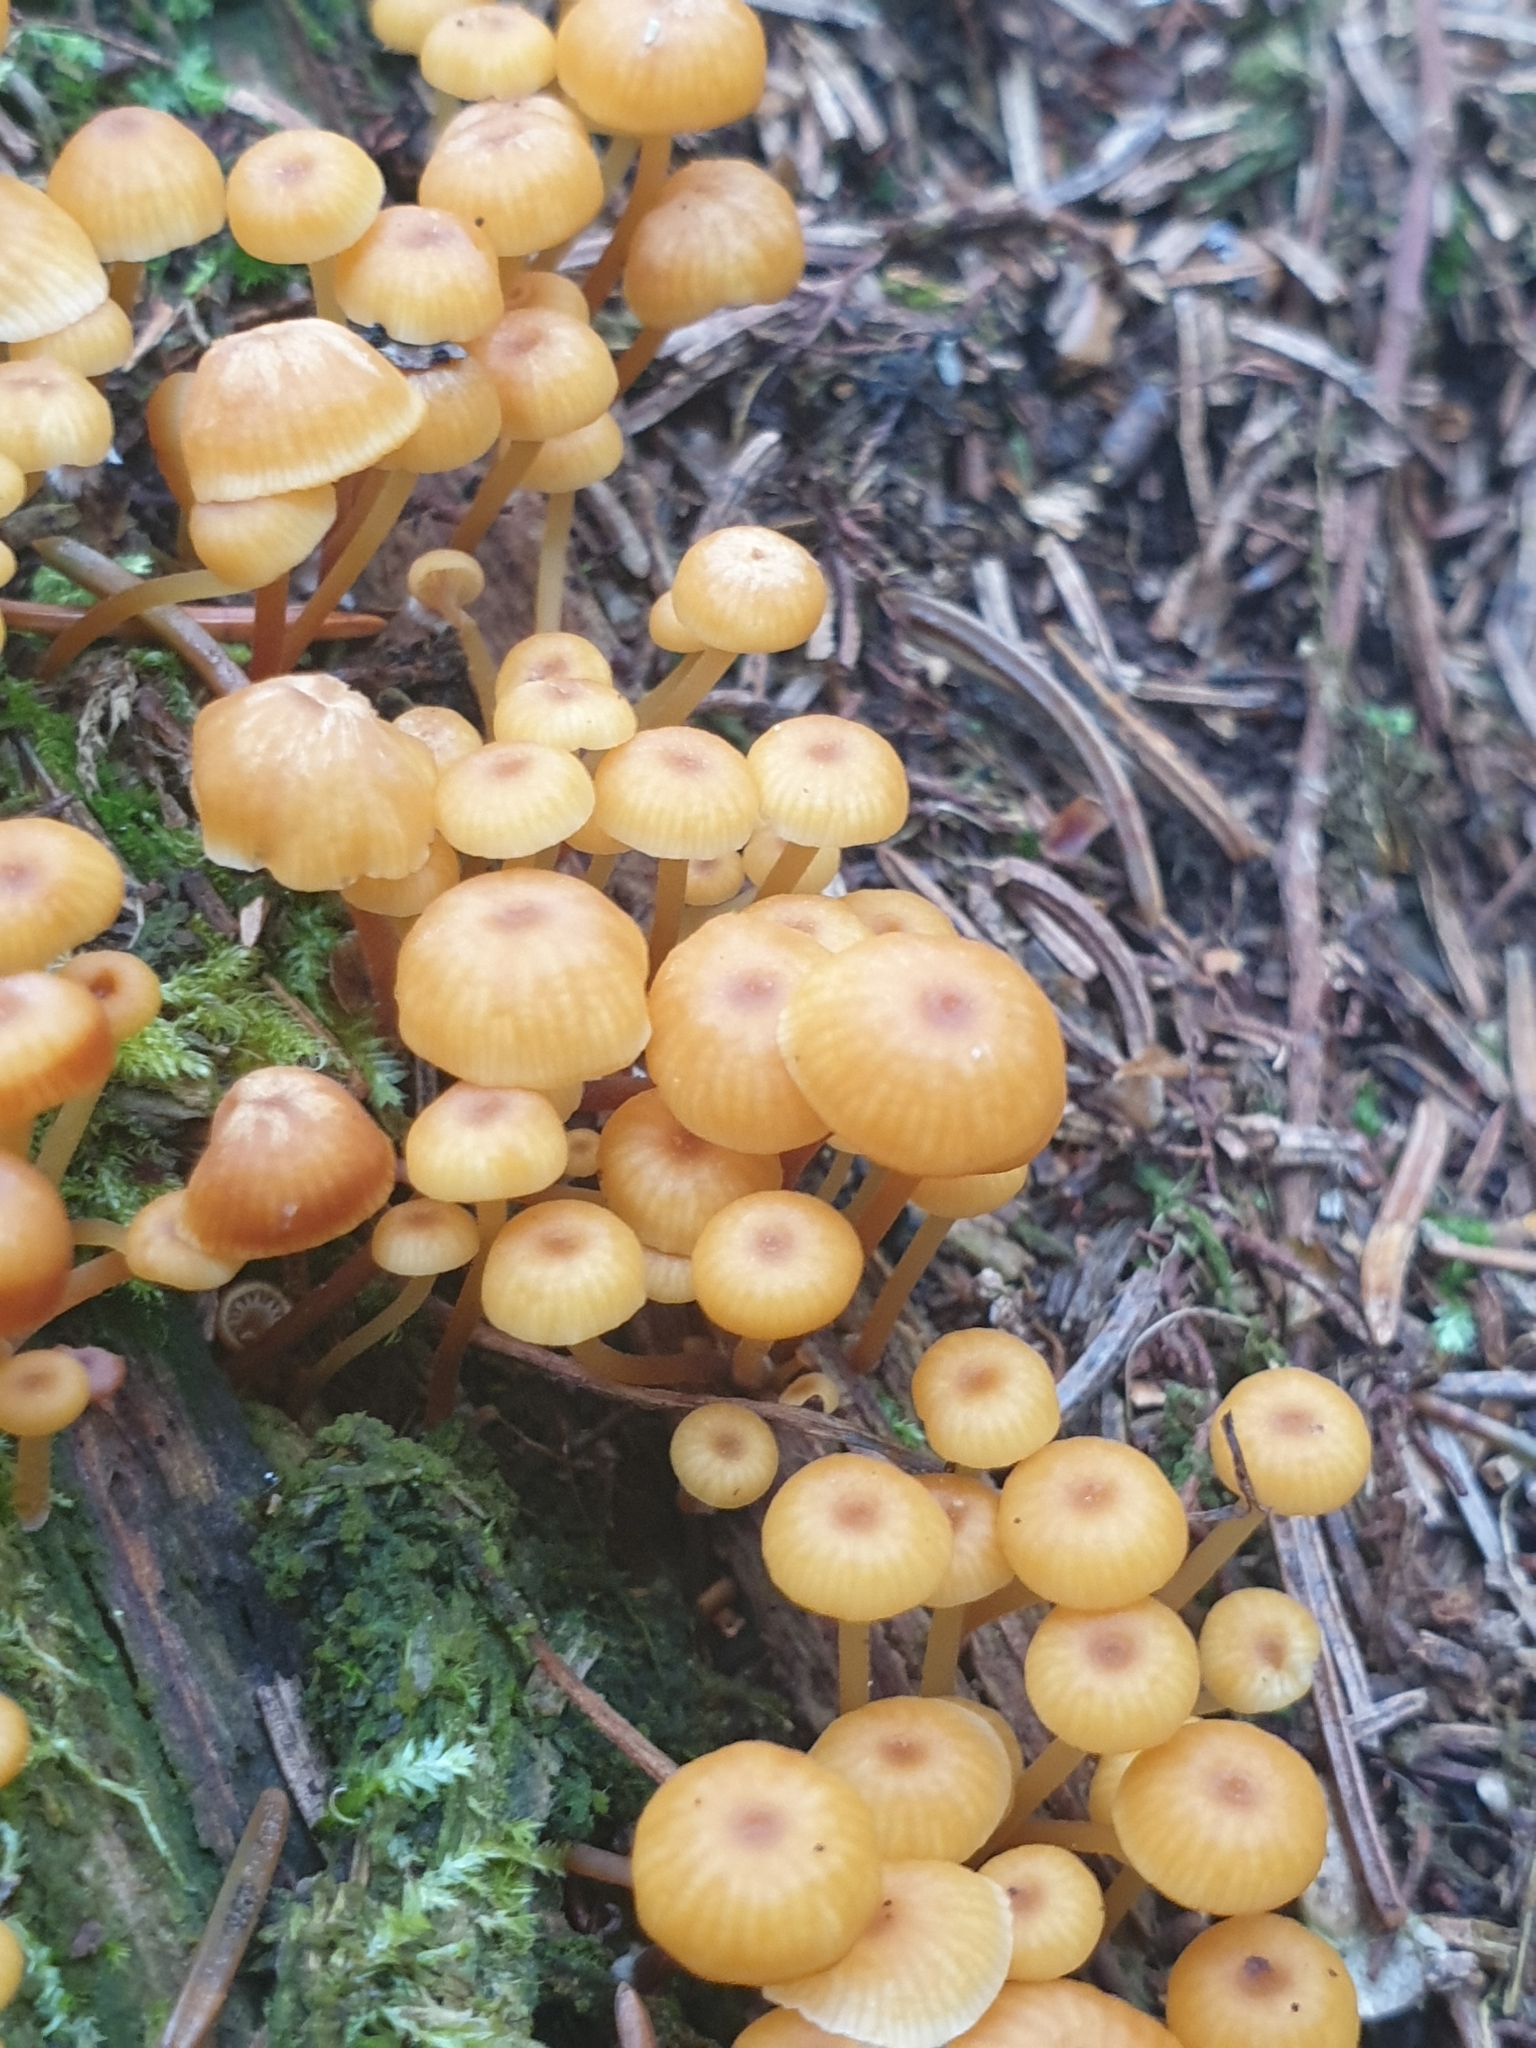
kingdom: Fungi
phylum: Basidiomycota
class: Agaricomycetes
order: Agaricales
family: Mycenaceae
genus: Xeromphalina
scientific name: Xeromphalina campanella
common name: Pinewood gingertail
